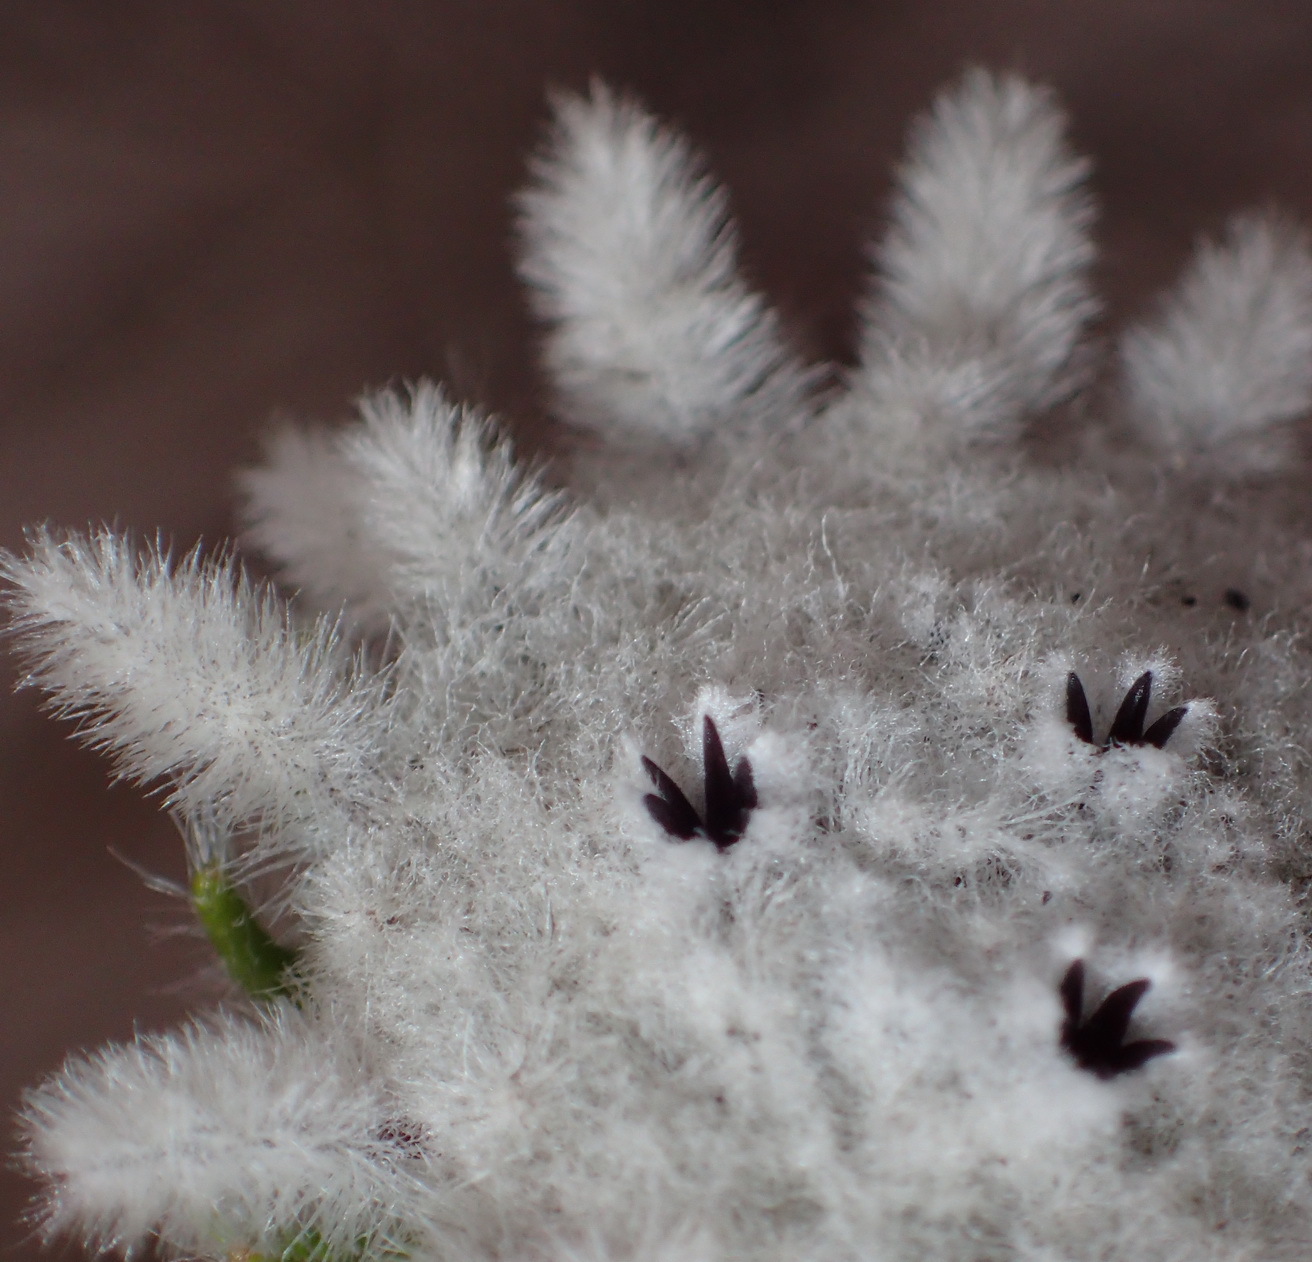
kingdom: Plantae
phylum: Tracheophyta
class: Magnoliopsida
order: Rosales
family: Rhamnaceae
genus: Phylica
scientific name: Phylica curvifolia
